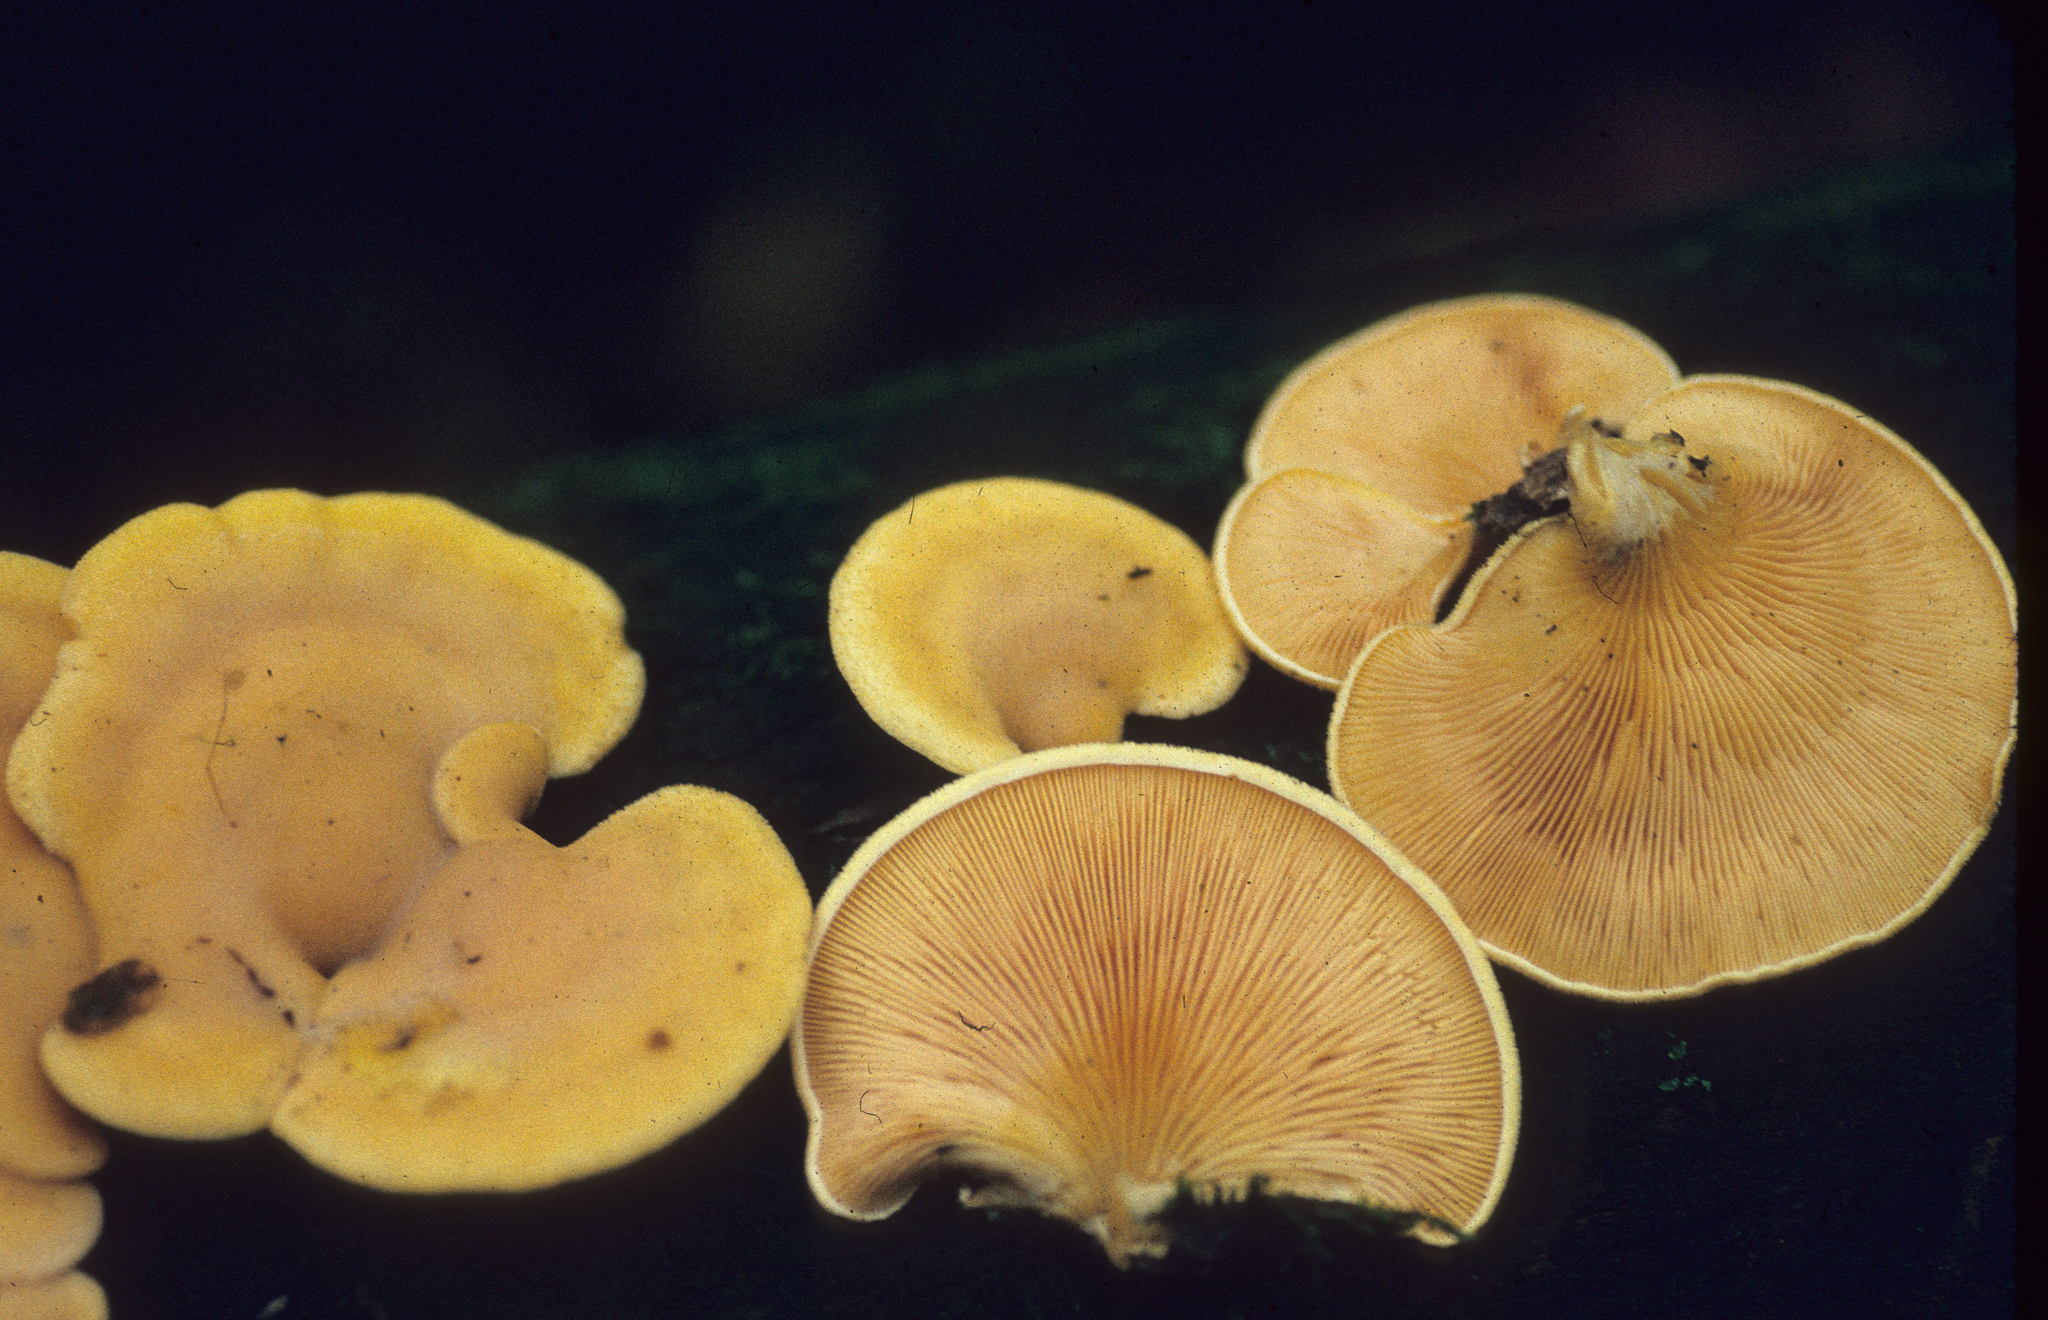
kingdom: Fungi
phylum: Basidiomycota
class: Agaricomycetes
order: Agaricales
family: Phyllotopsidaceae
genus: Phyllotopsis
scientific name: Phyllotopsis nidulans
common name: Orange mock oyster
